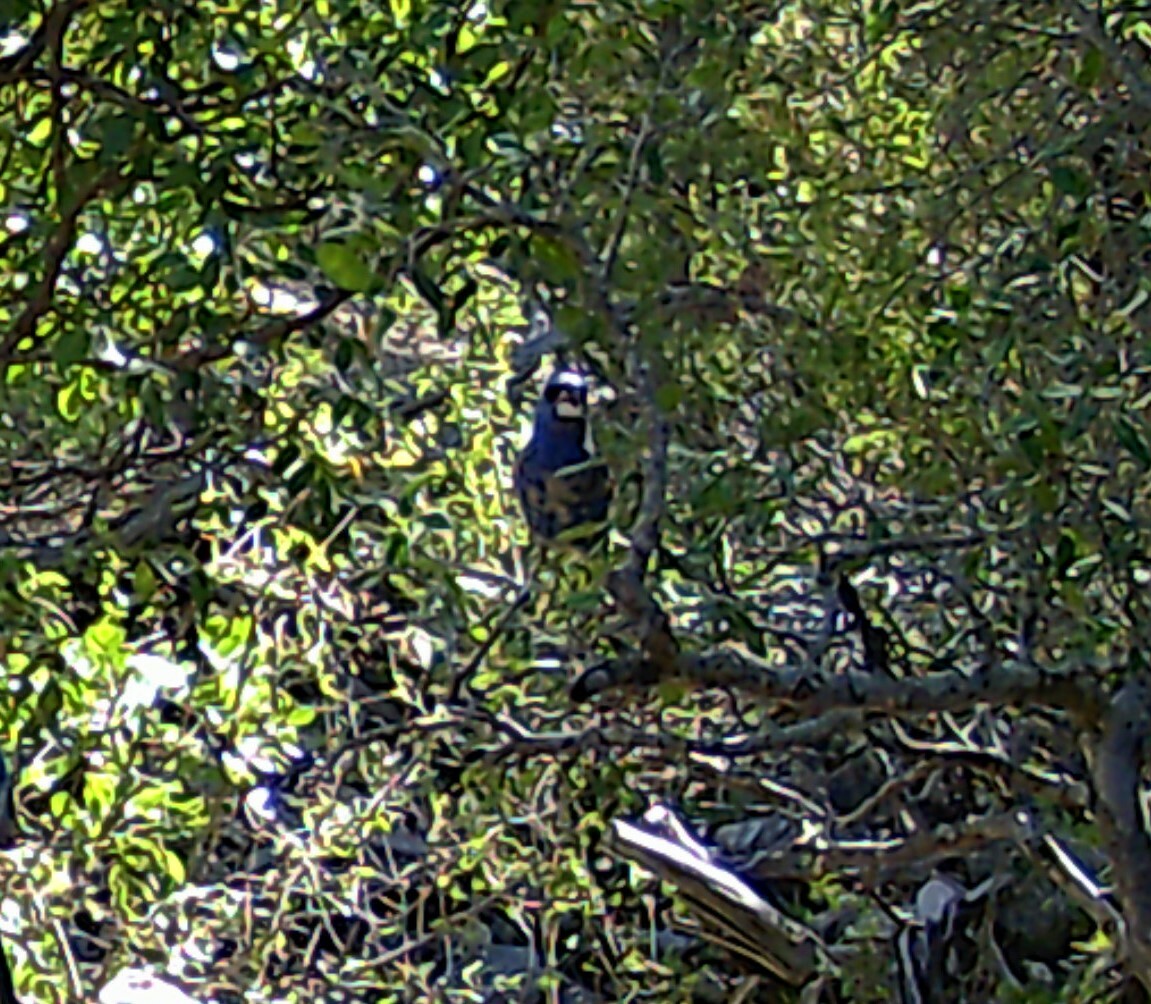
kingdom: Animalia
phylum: Chordata
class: Aves
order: Passeriformes
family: Cardinalidae
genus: Passerina
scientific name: Passerina caerulea
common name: Blue grosbeak
